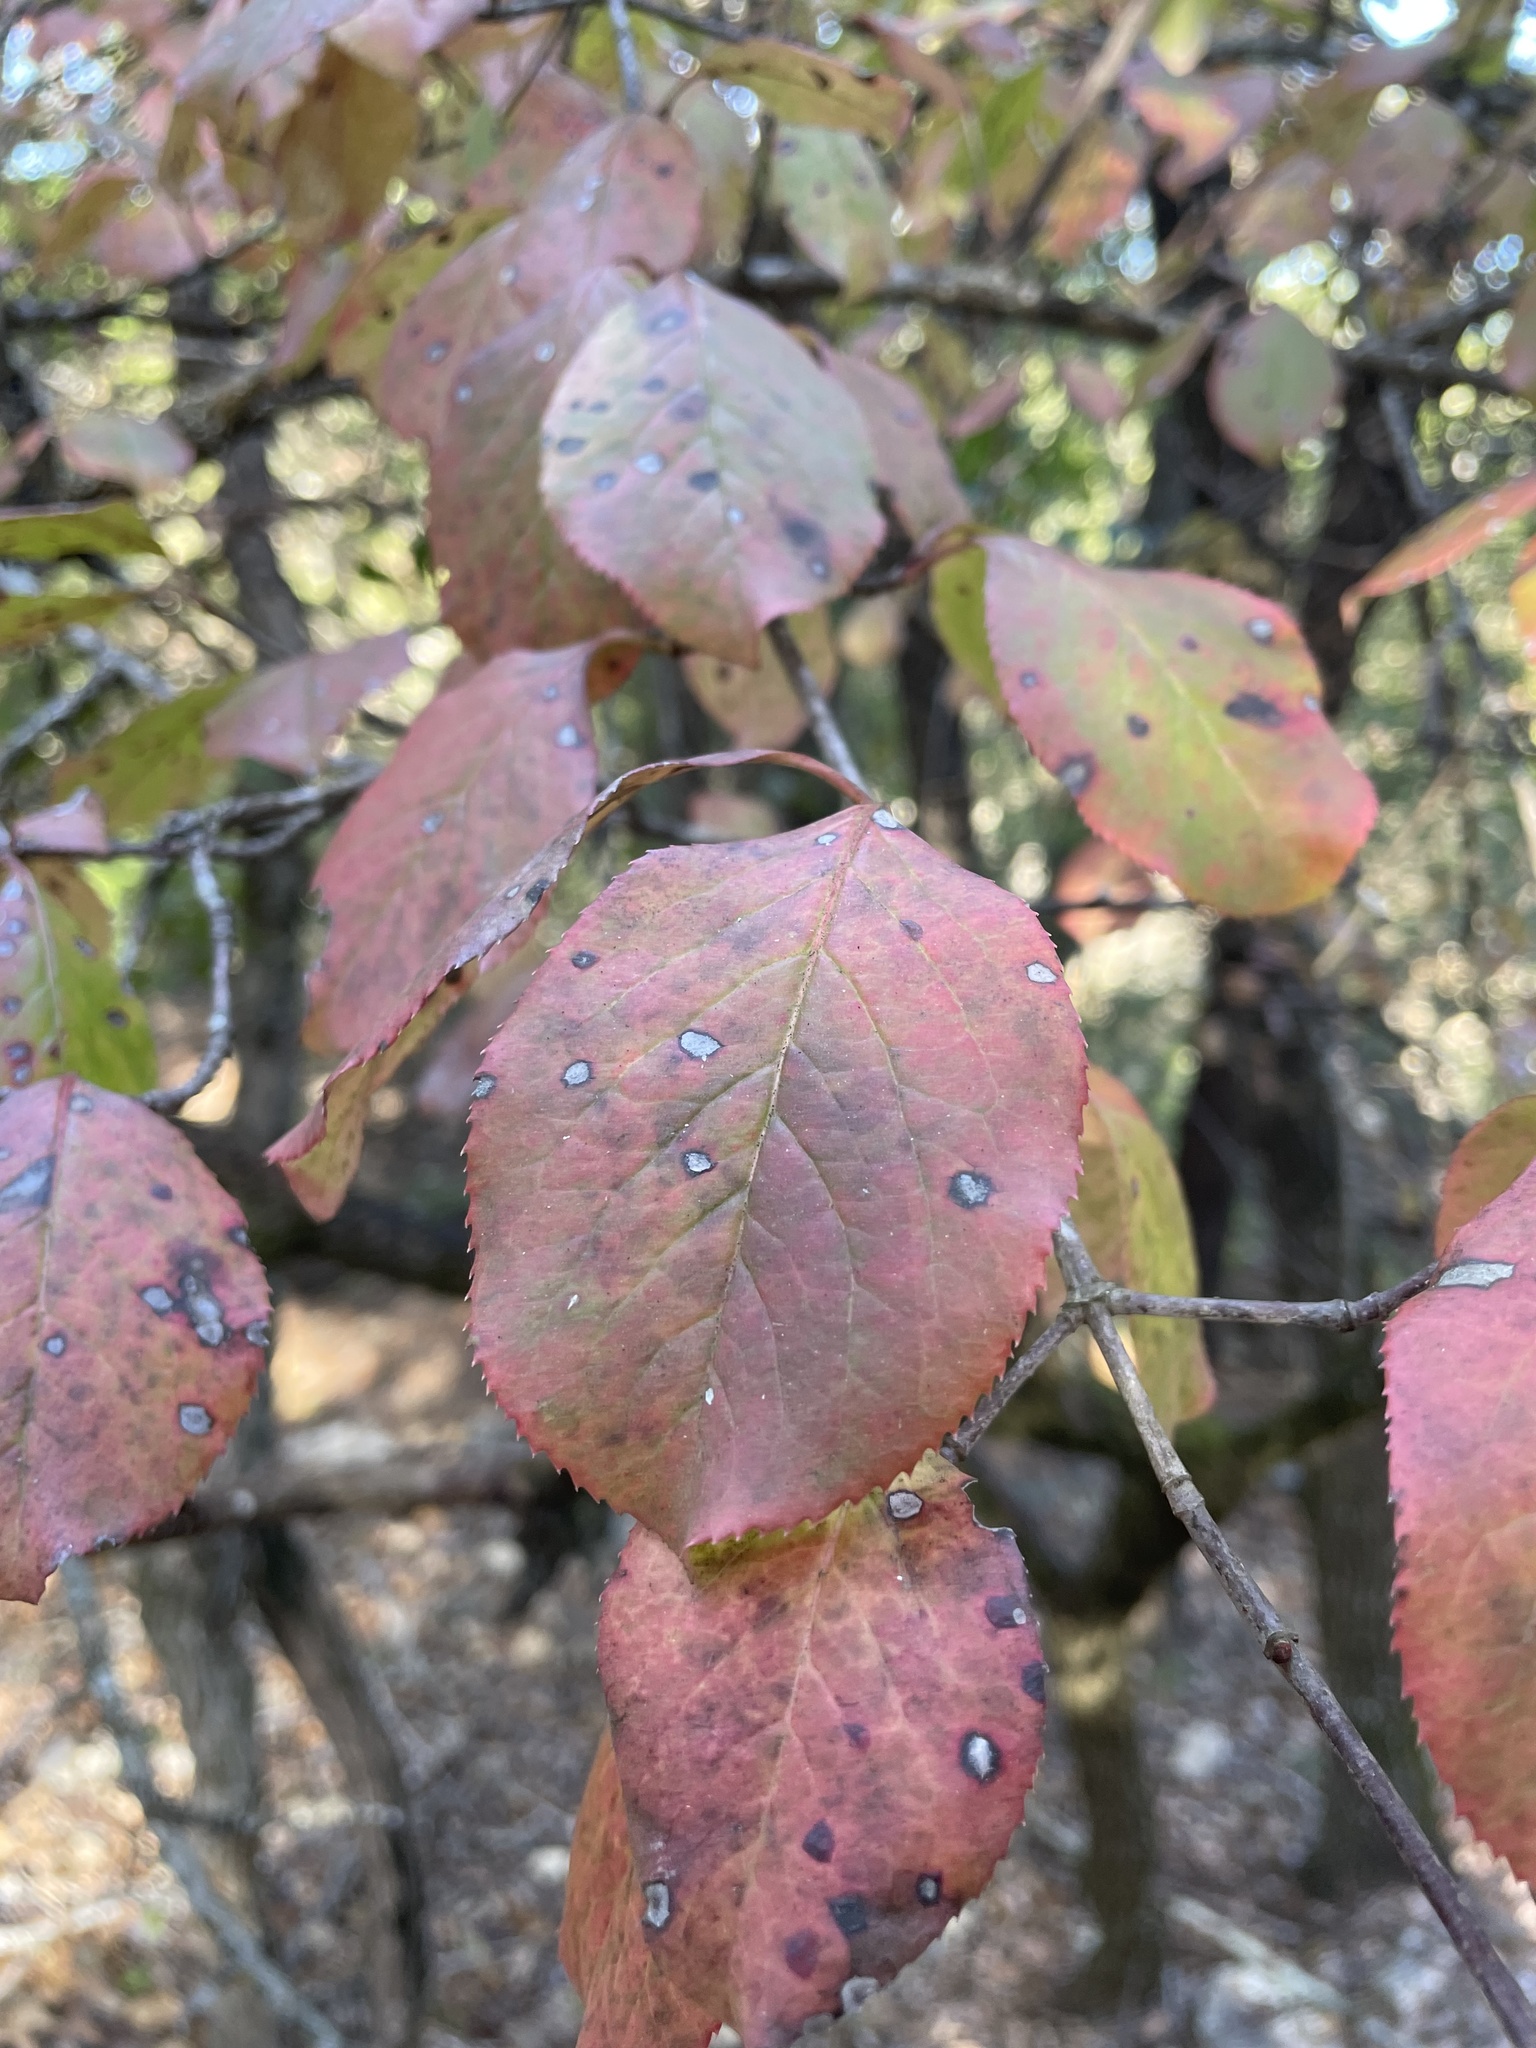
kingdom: Plantae
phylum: Tracheophyta
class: Magnoliopsida
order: Dipsacales
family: Viburnaceae
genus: Viburnum
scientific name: Viburnum rufidulum
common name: Blue haw
